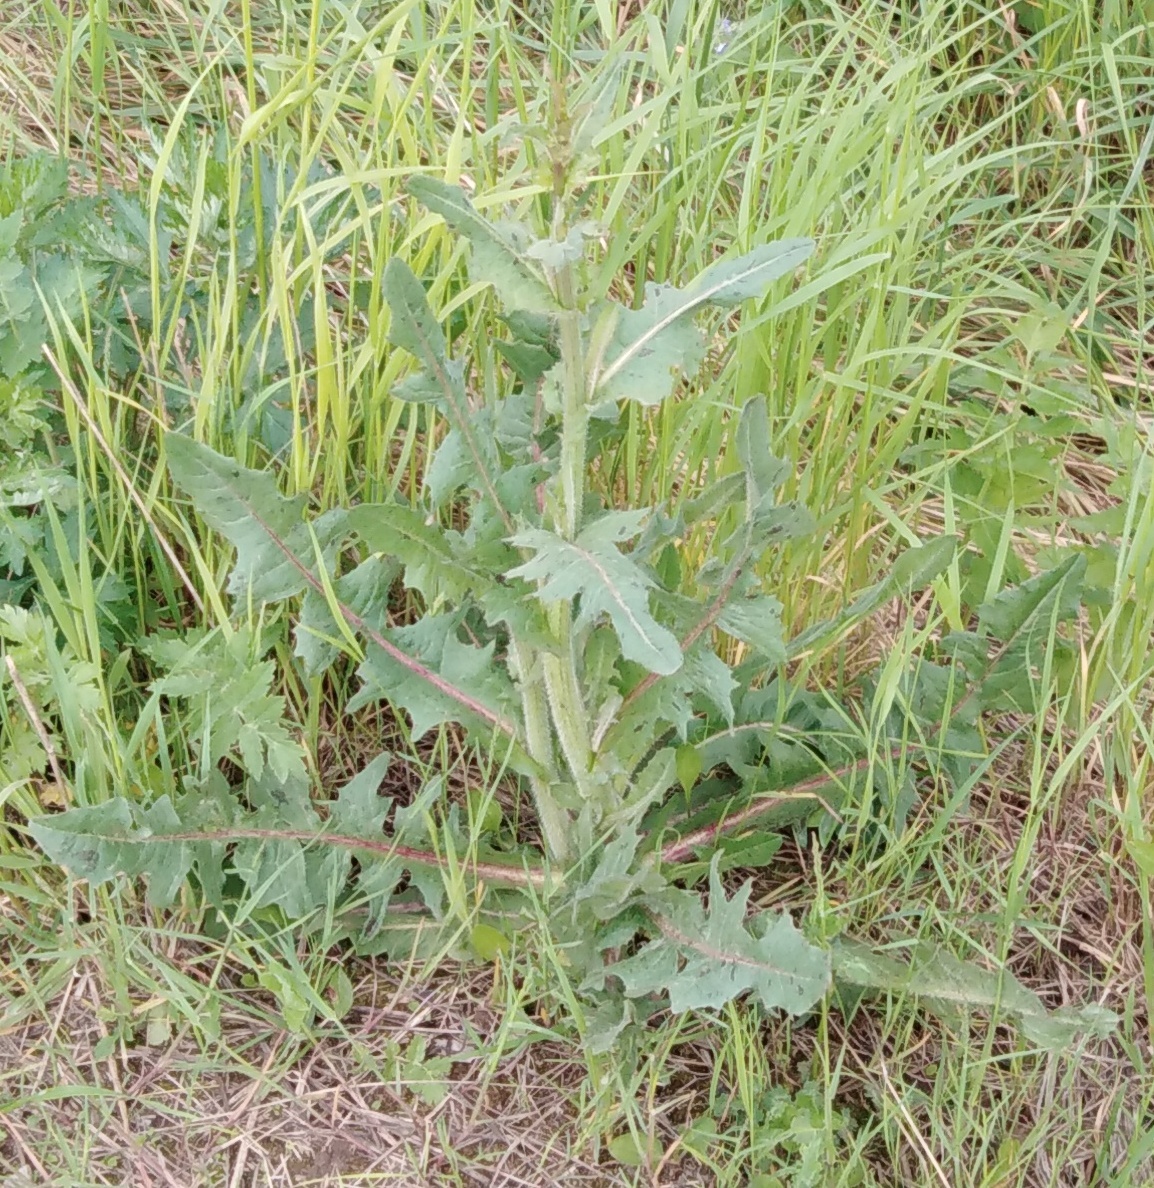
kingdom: Plantae
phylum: Tracheophyta
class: Magnoliopsida
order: Asterales
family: Asteraceae
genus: Cichorium
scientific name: Cichorium intybus
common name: Chicory
